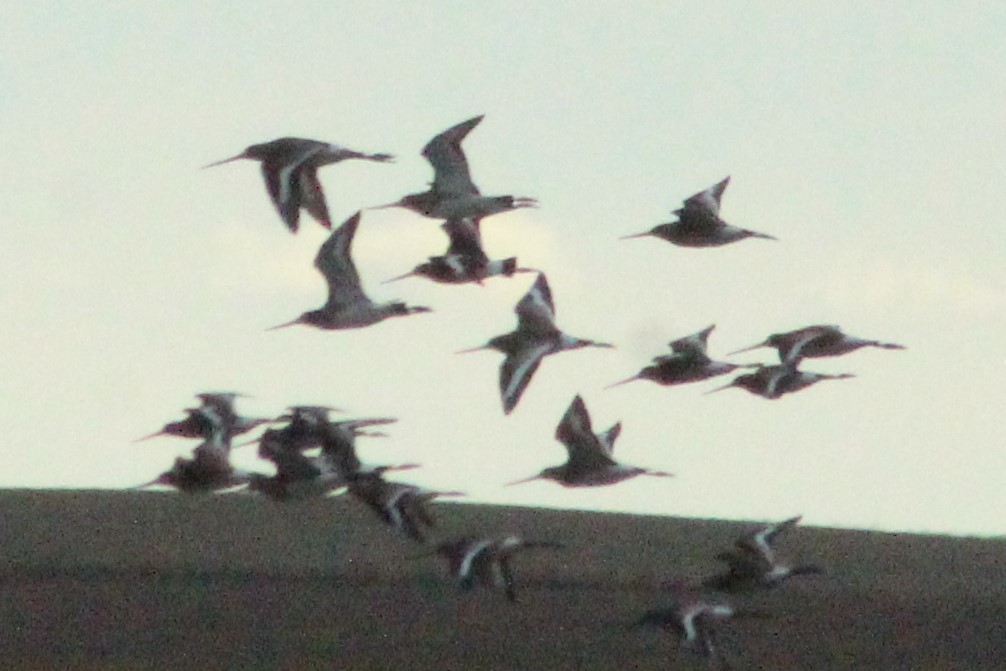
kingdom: Animalia
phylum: Chordata
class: Aves
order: Charadriiformes
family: Scolopacidae
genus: Limosa
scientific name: Limosa limosa
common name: Black-tailed godwit
